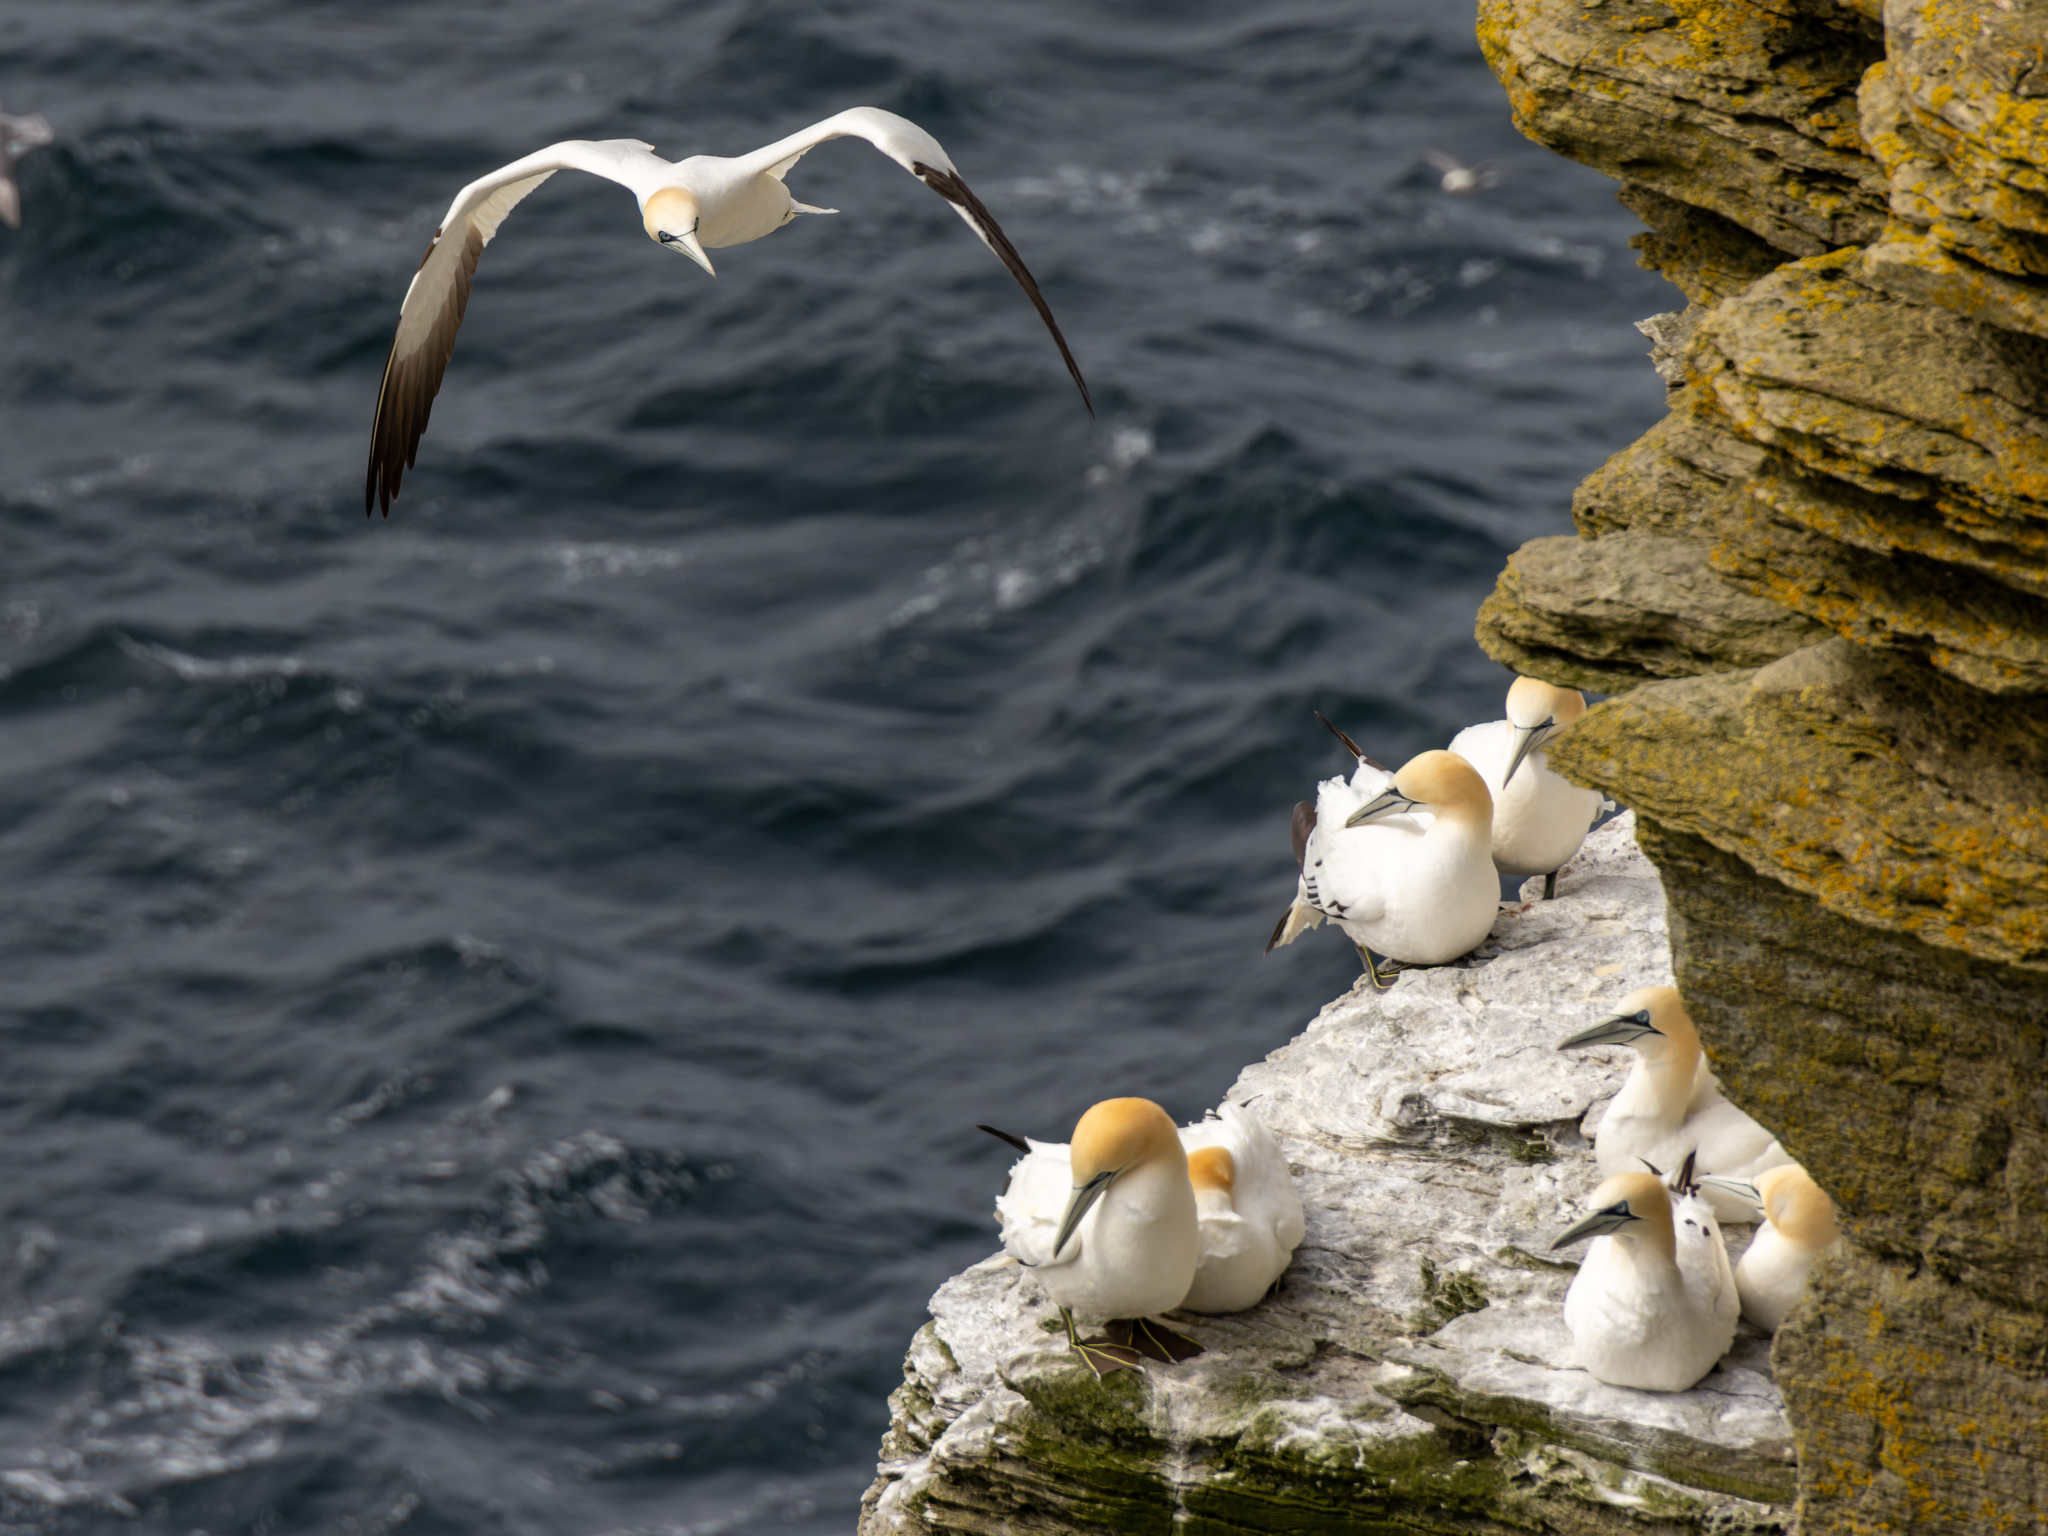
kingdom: Animalia
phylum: Chordata
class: Aves
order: Suliformes
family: Sulidae
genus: Morus
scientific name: Morus bassanus
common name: Northern gannet
